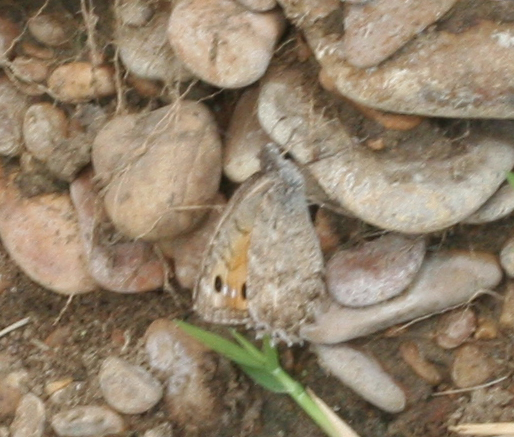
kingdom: Animalia
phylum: Arthropoda
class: Insecta
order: Lepidoptera
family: Nymphalidae
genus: Pseudochazara
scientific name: Pseudochazara pelopea
